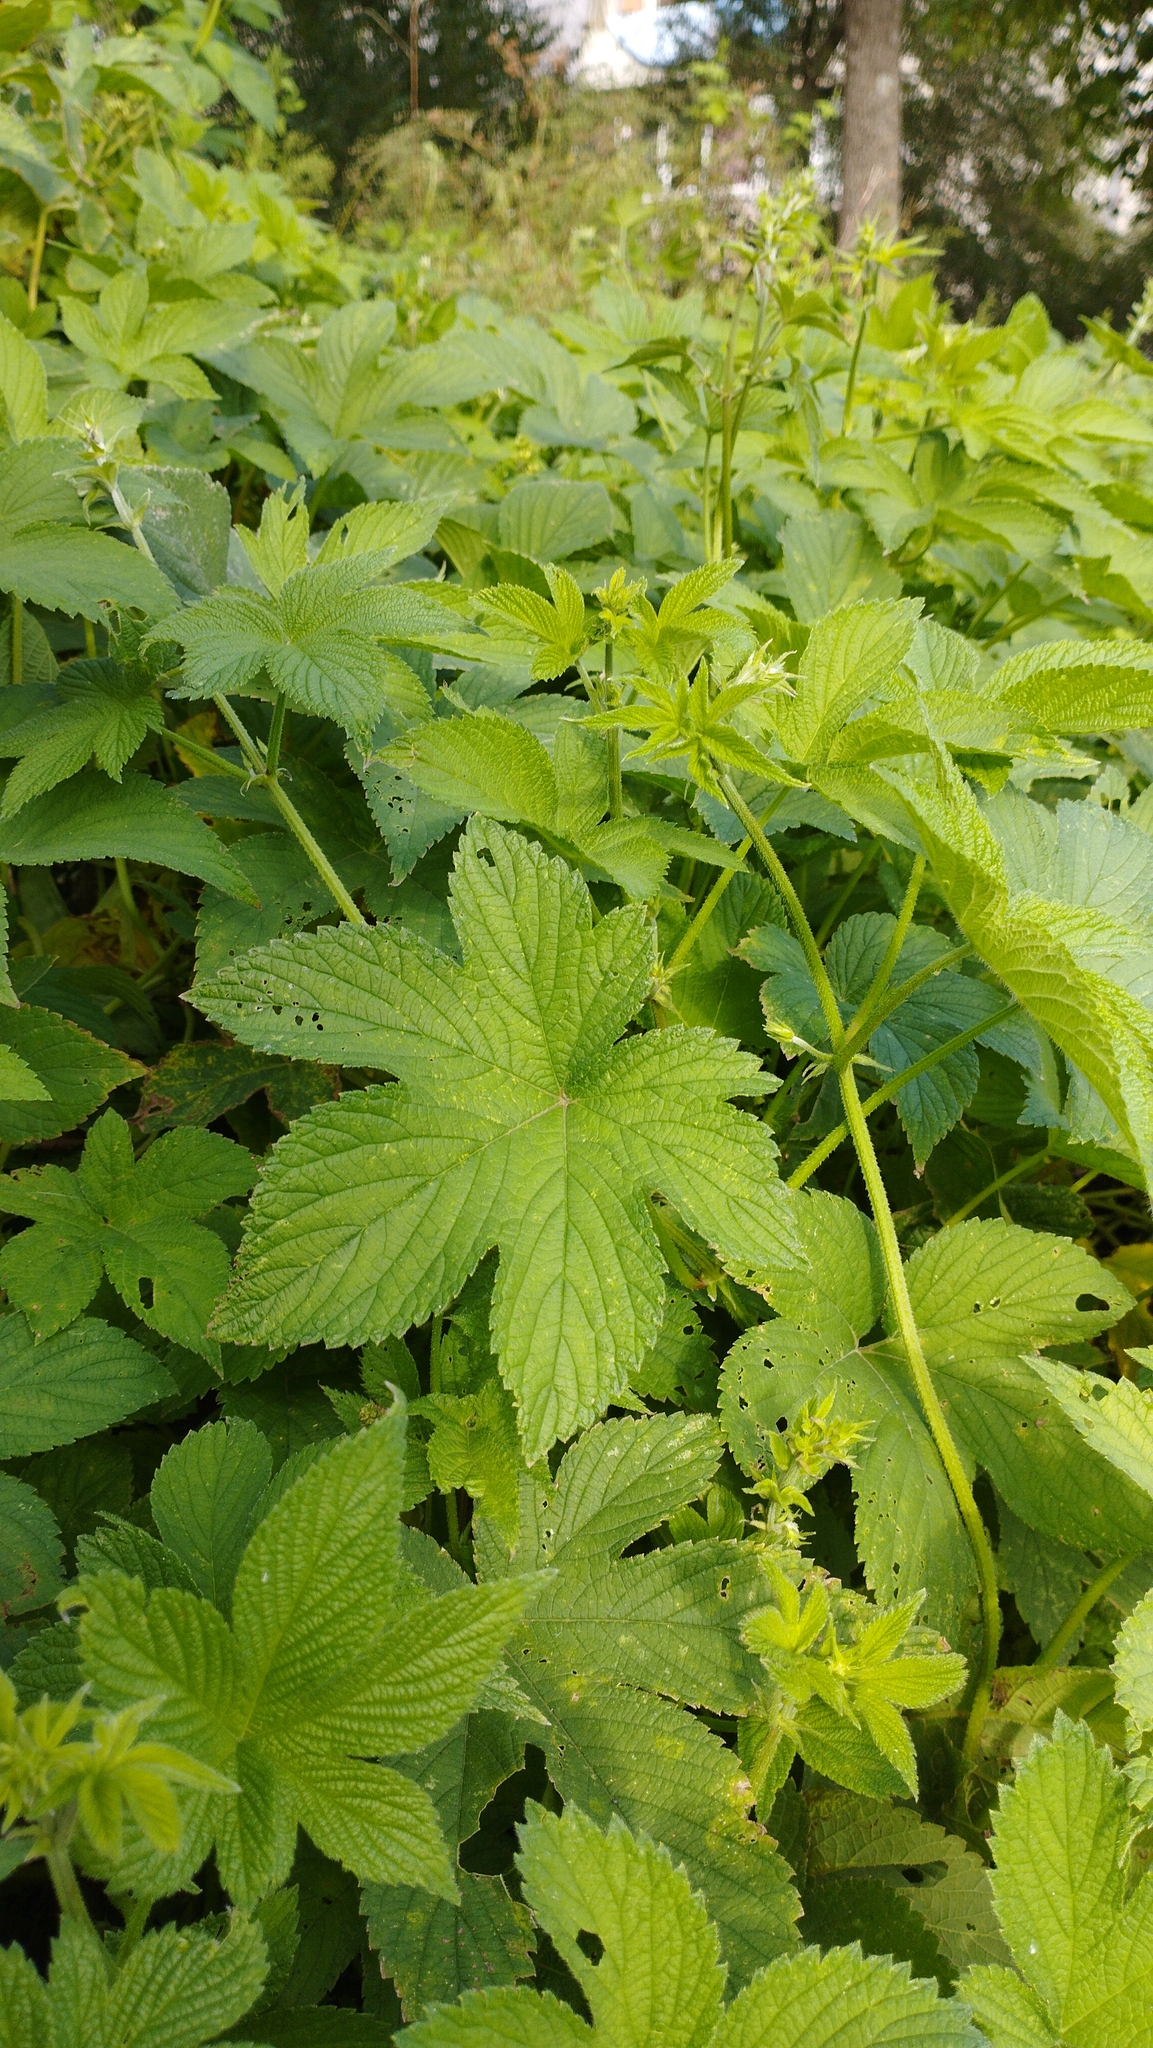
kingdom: Plantae
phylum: Tracheophyta
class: Magnoliopsida
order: Rosales
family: Cannabaceae
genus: Humulus
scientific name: Humulus scandens
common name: Japanese hop
